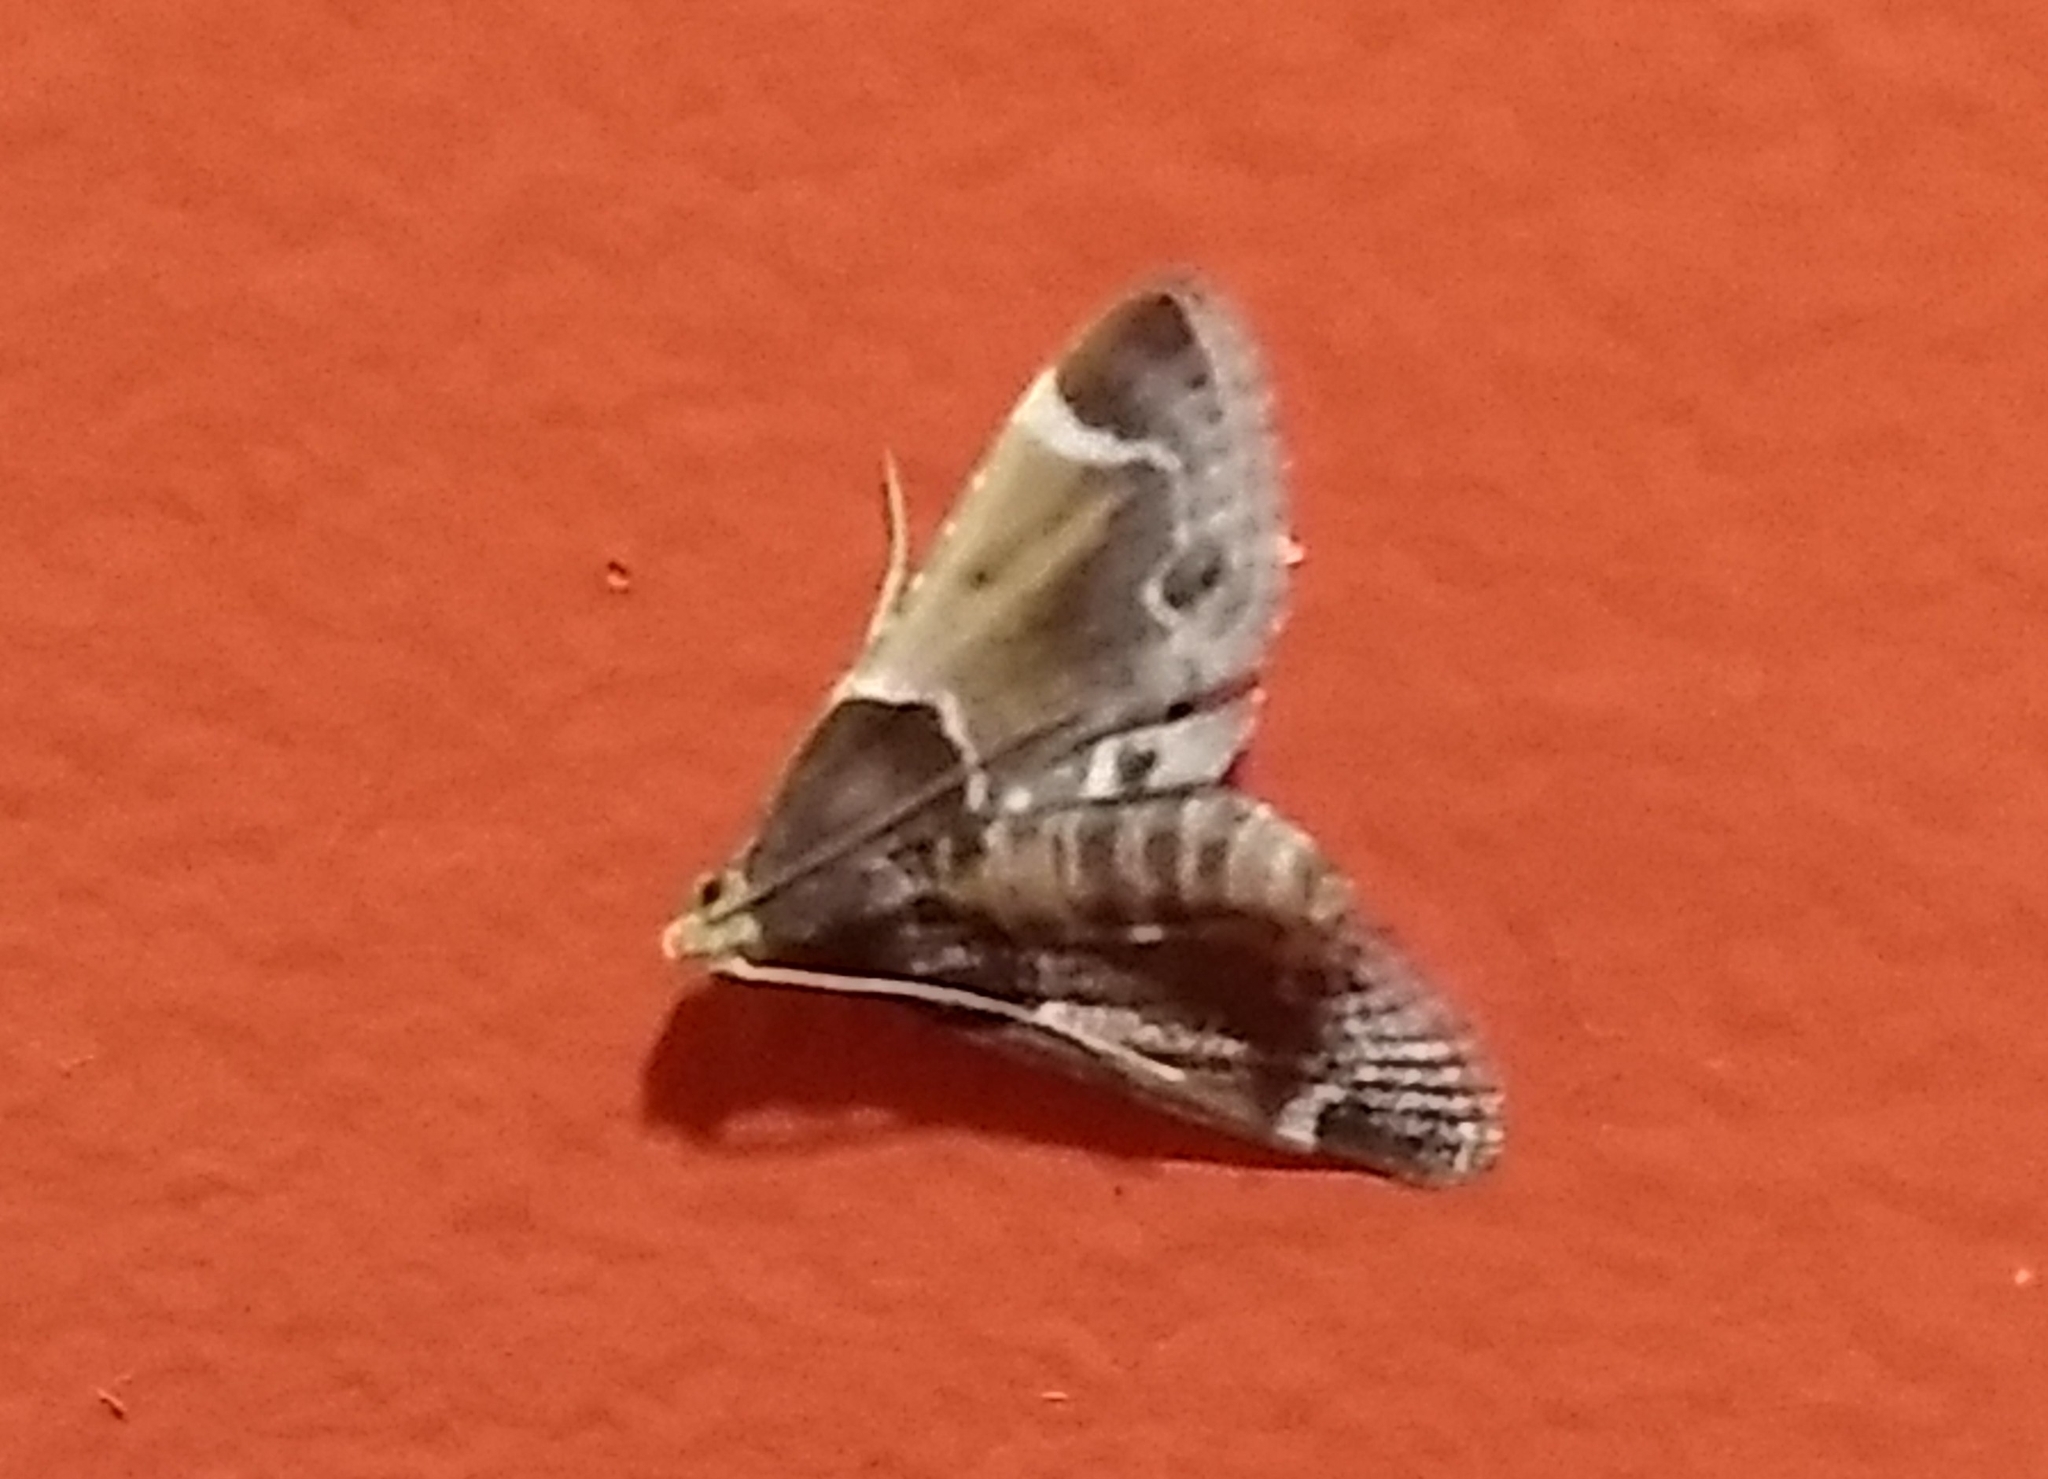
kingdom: Animalia
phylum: Arthropoda
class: Insecta
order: Lepidoptera
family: Pyralidae
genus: Pyralis
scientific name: Pyralis farinalis
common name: Meal moth
